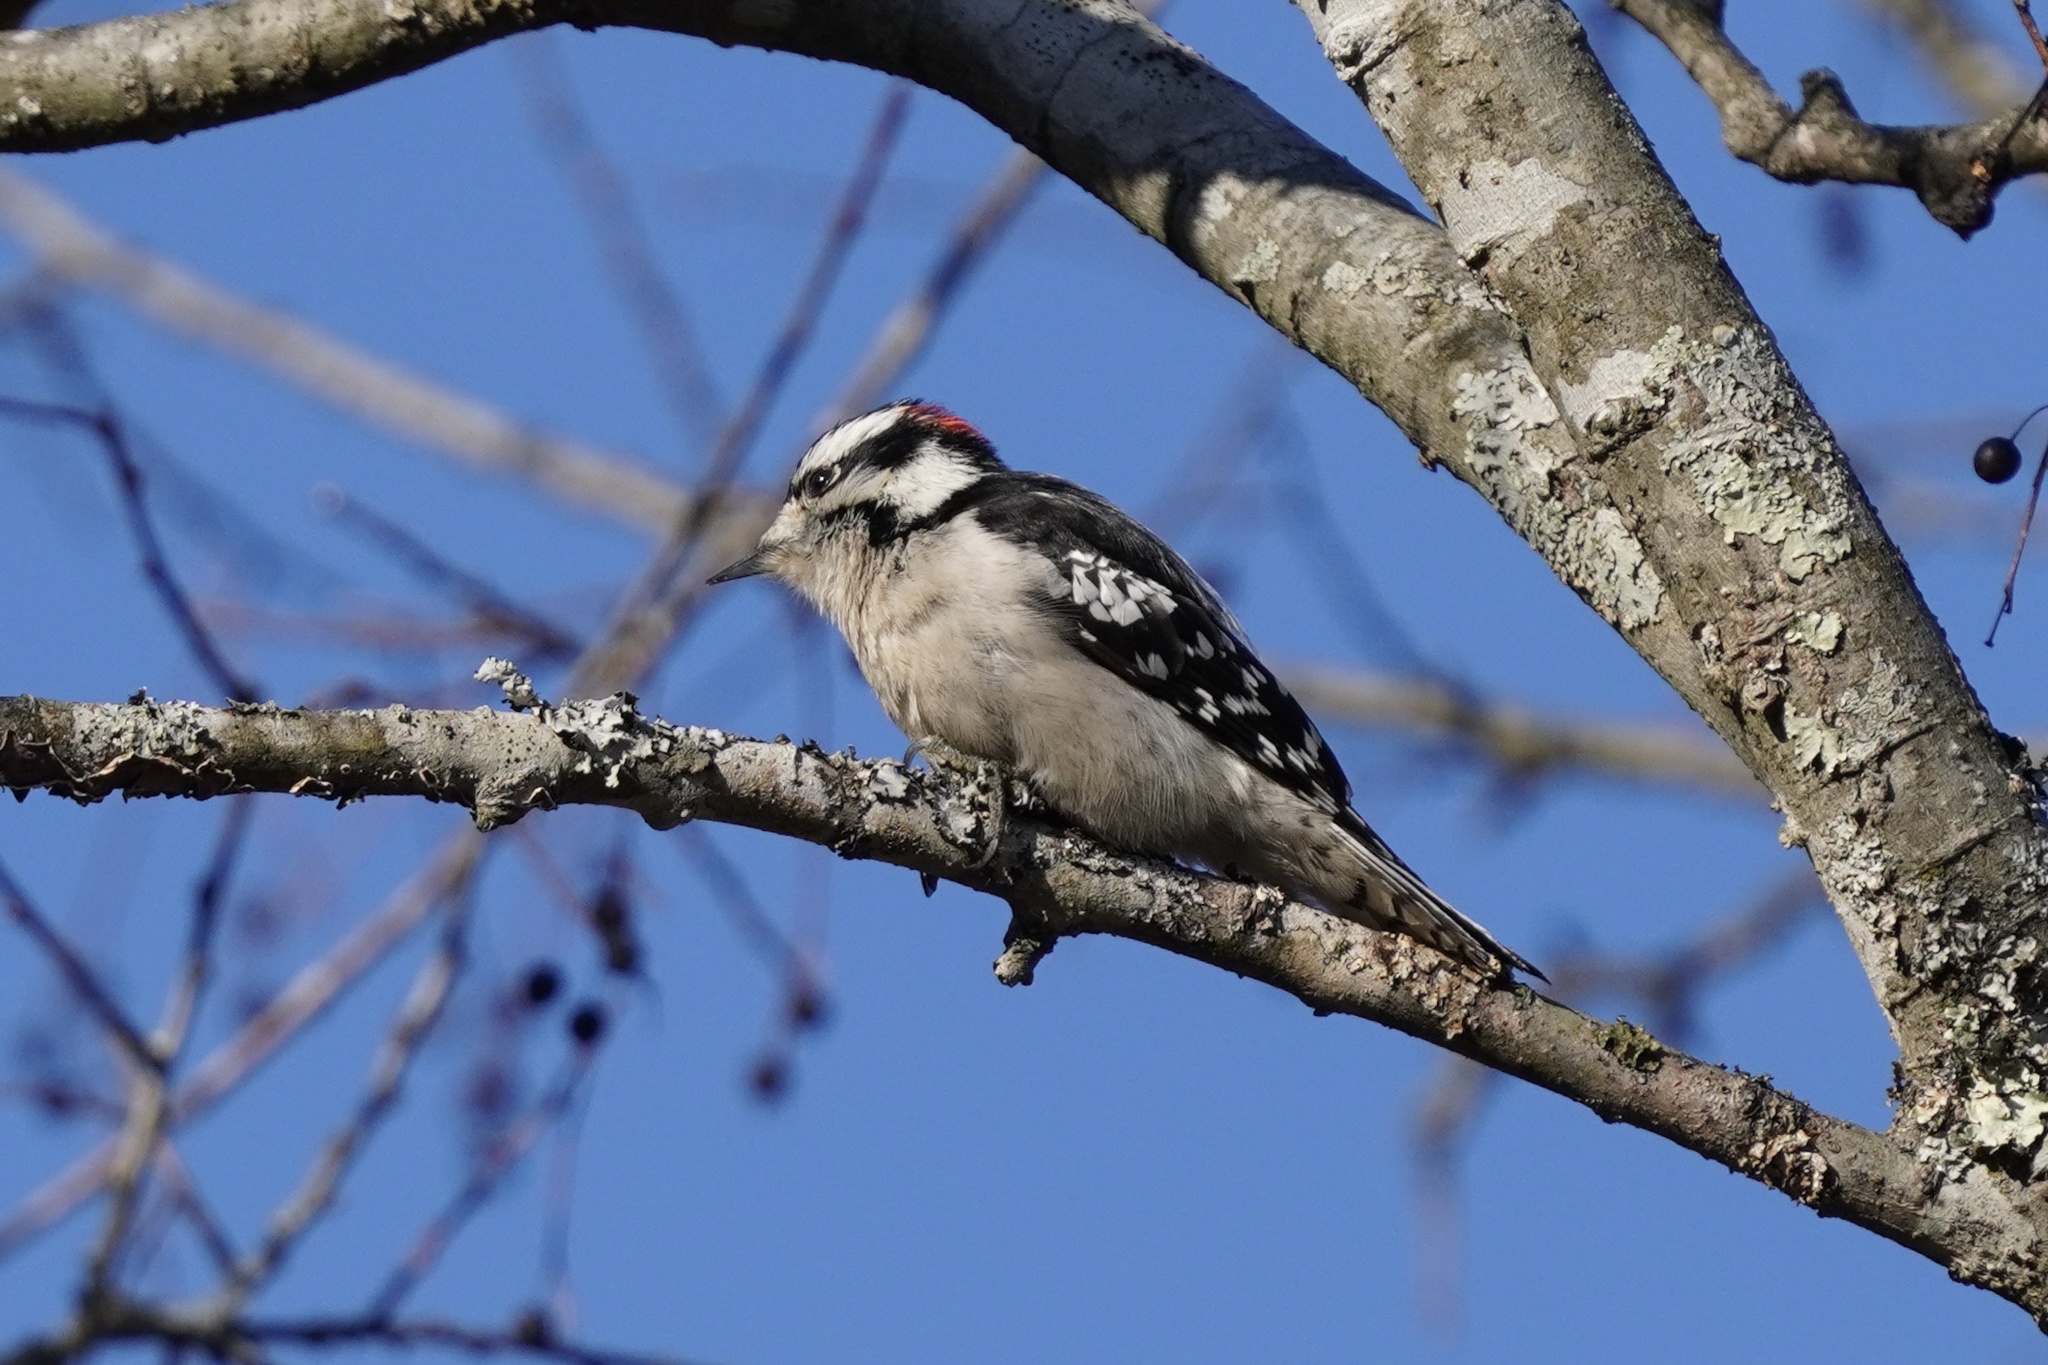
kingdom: Animalia
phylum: Chordata
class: Aves
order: Piciformes
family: Picidae
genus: Dryobates
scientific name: Dryobates pubescens
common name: Downy woodpecker
